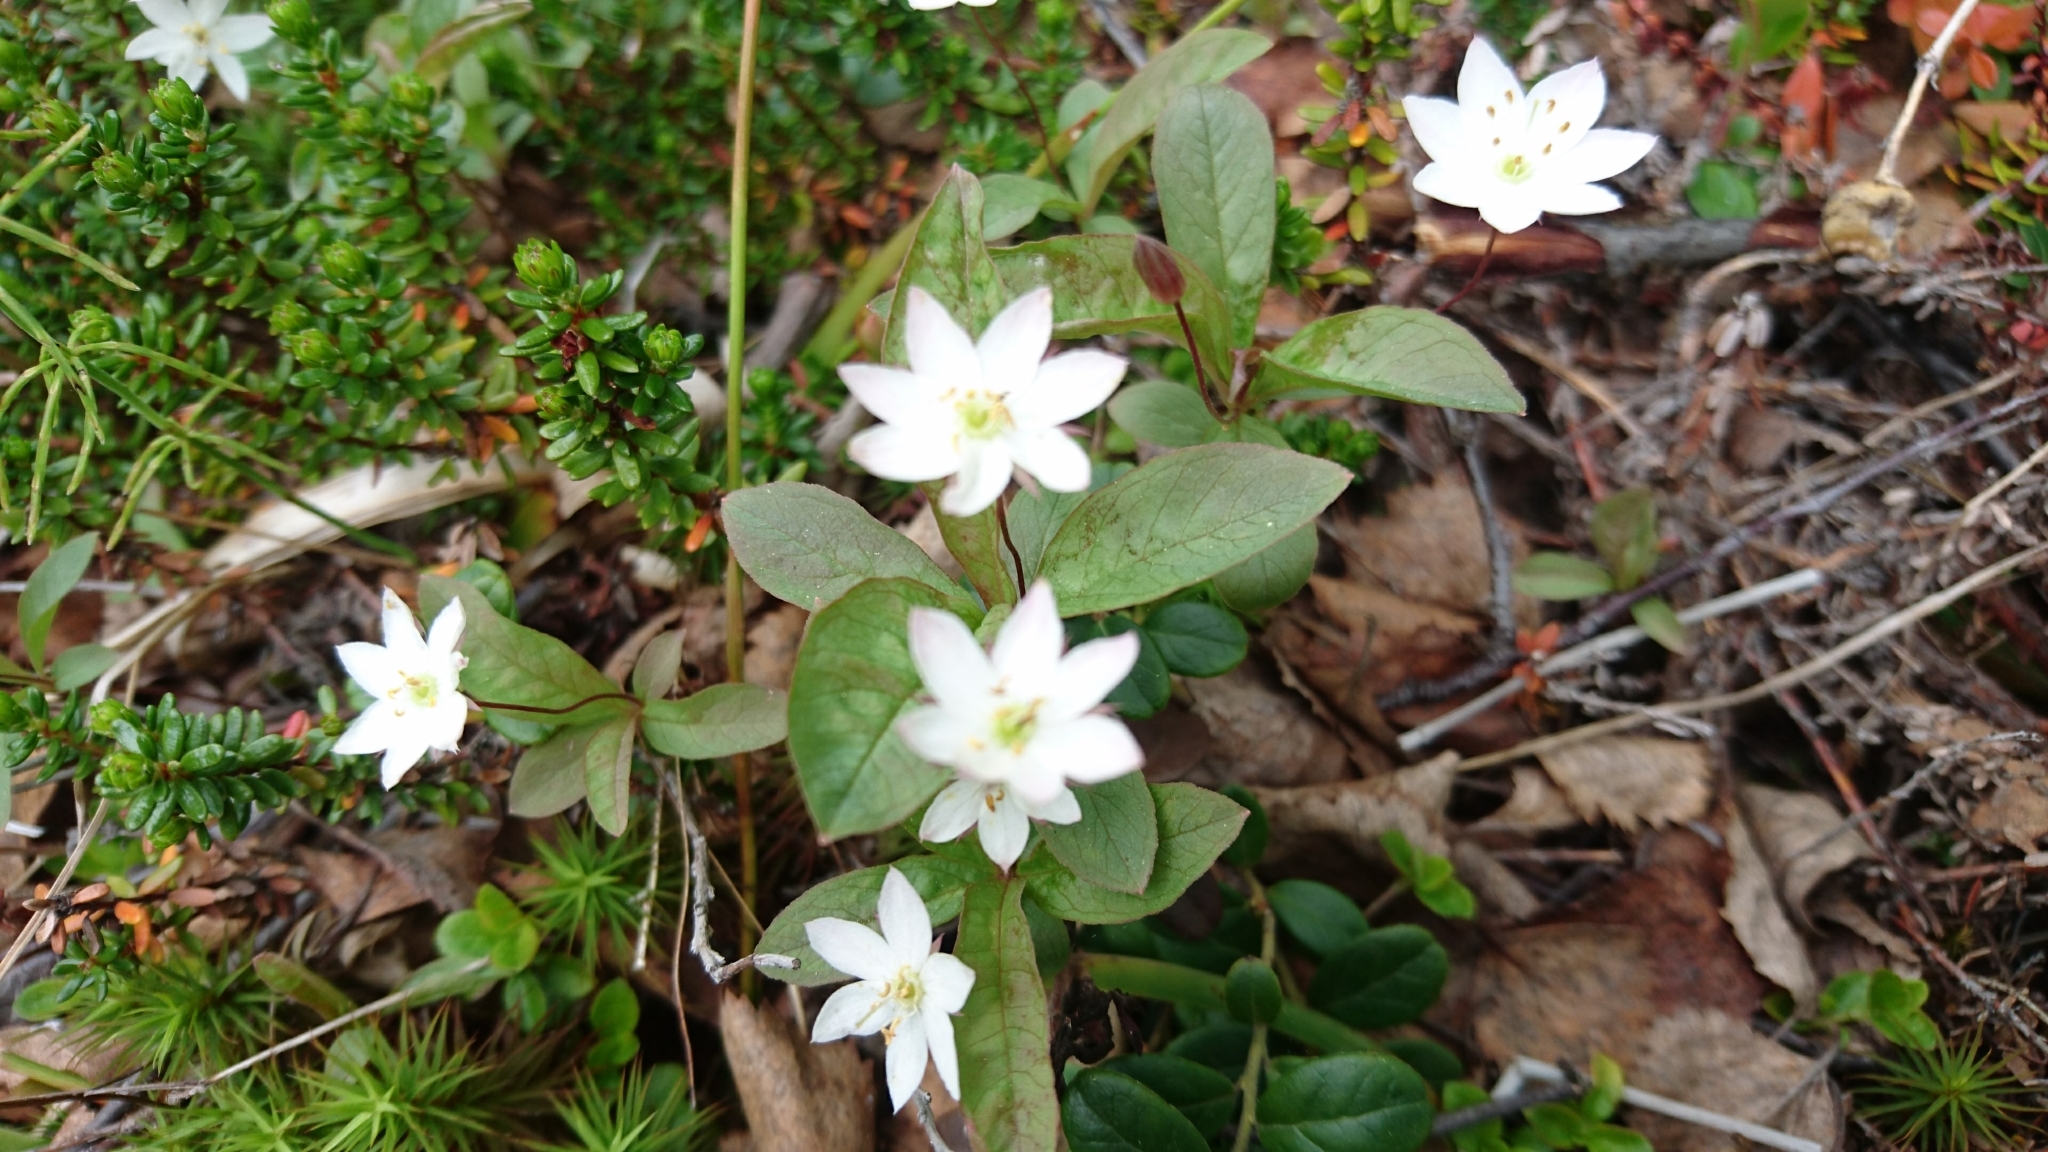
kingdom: Plantae
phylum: Tracheophyta
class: Magnoliopsida
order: Ericales
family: Primulaceae
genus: Lysimachia
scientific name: Lysimachia europaea
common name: Arctic starflower
